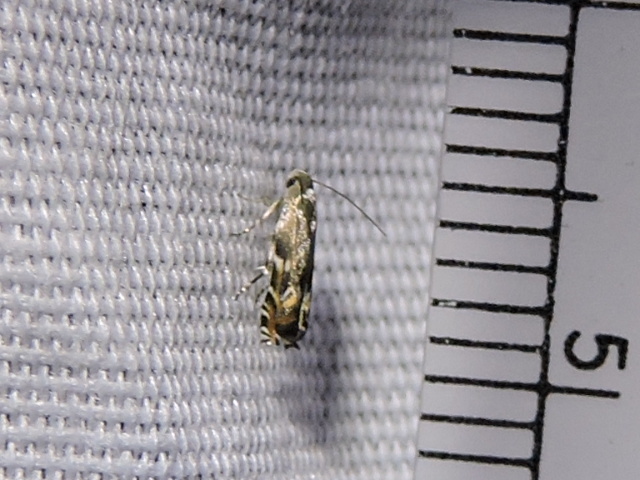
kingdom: Animalia
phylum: Arthropoda
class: Insecta
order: Lepidoptera
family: Gelechiidae
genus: Calliprora
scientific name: Calliprora sexstrigella
